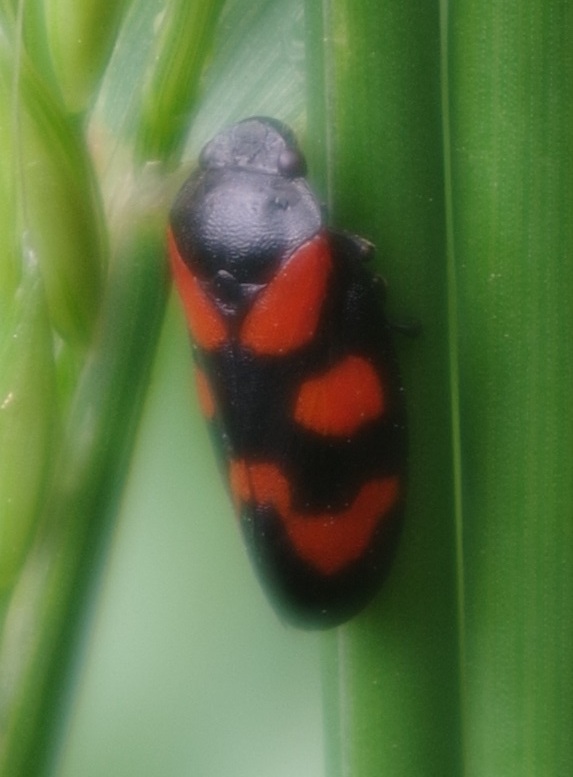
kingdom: Animalia
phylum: Arthropoda
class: Insecta
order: Hemiptera
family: Cercopidae
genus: Cercopis
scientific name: Cercopis vulnerata
